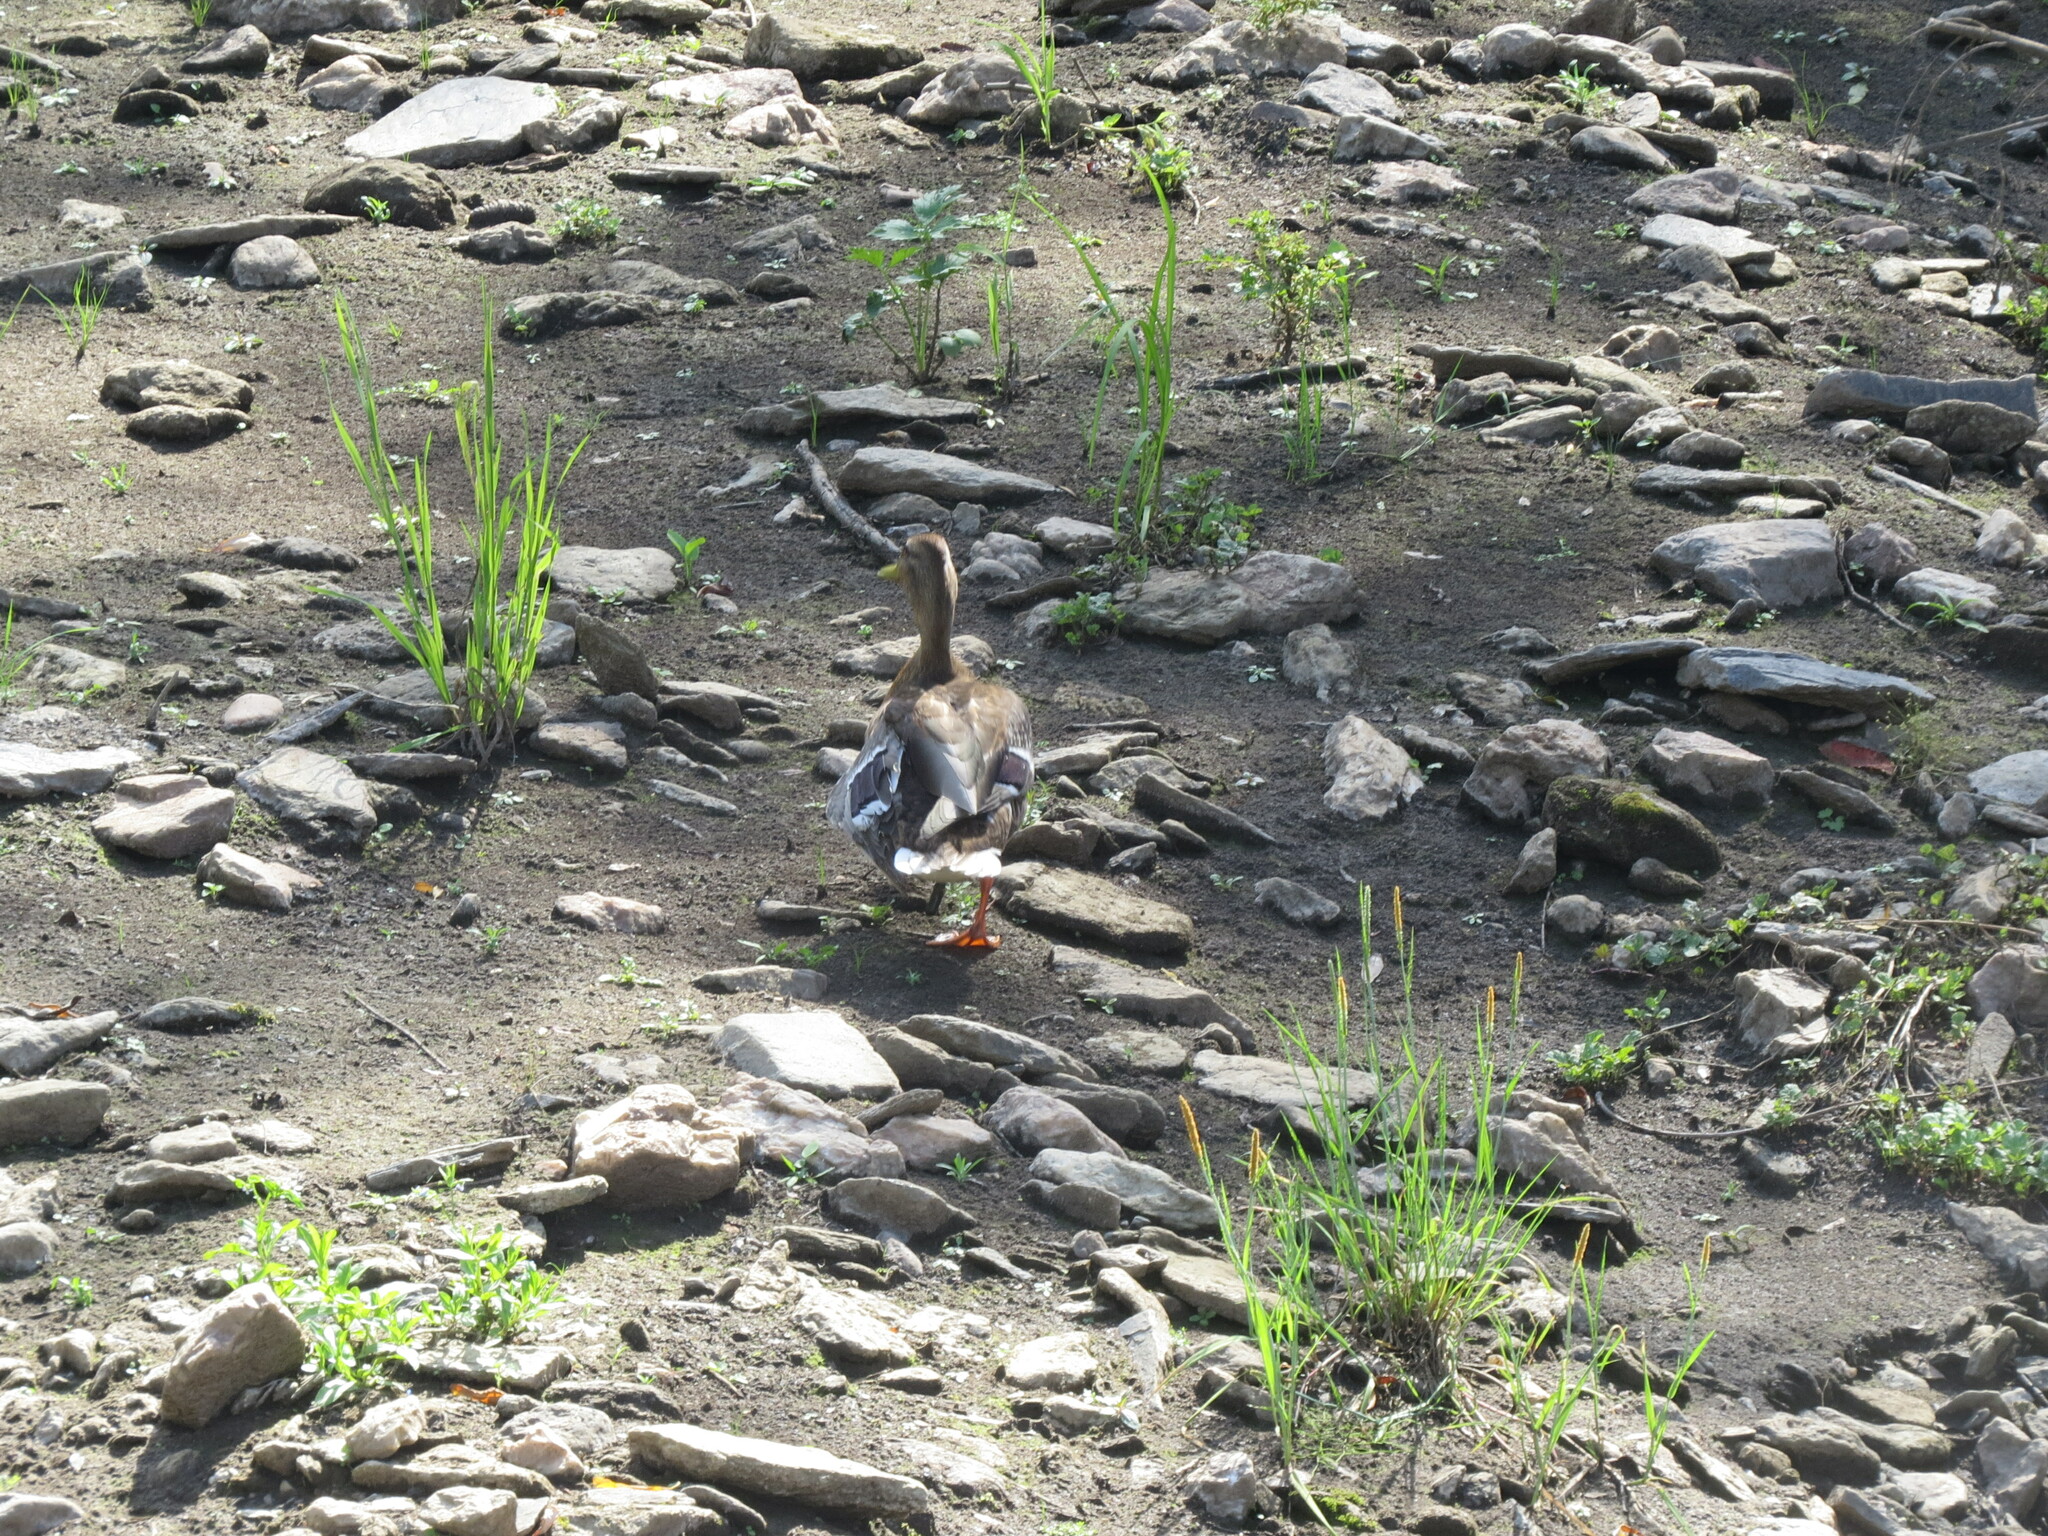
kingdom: Animalia
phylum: Chordata
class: Aves
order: Anseriformes
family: Anatidae
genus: Anas
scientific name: Anas platyrhynchos
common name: Mallard
